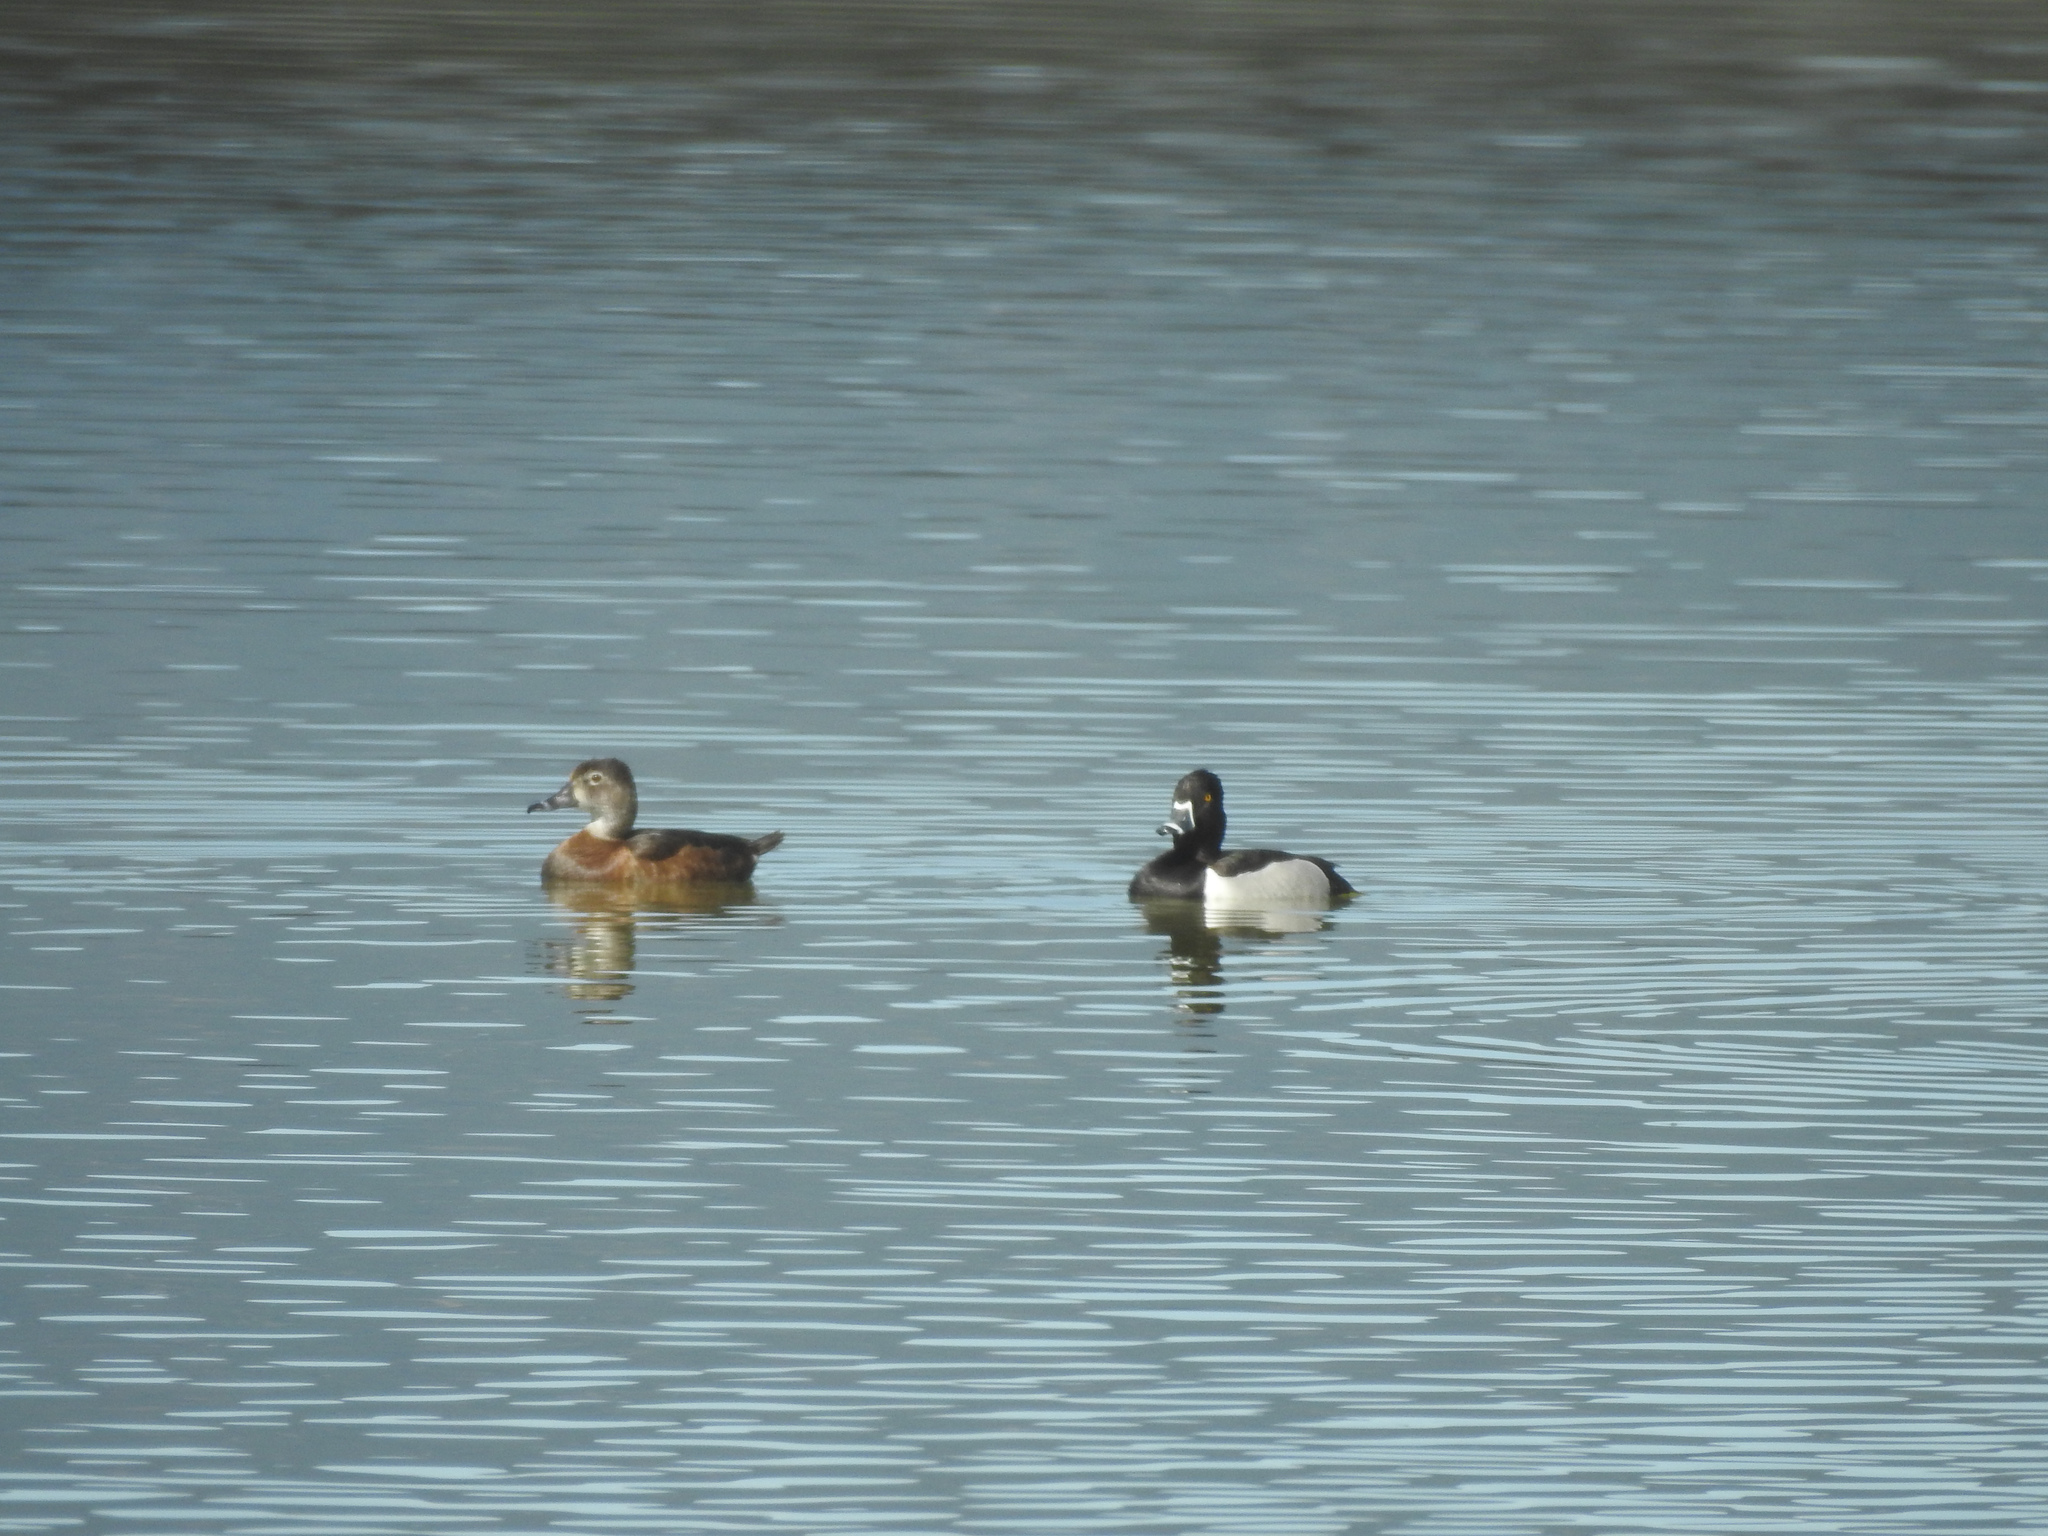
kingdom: Animalia
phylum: Chordata
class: Aves
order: Anseriformes
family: Anatidae
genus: Aythya
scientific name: Aythya collaris
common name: Ring-necked duck
